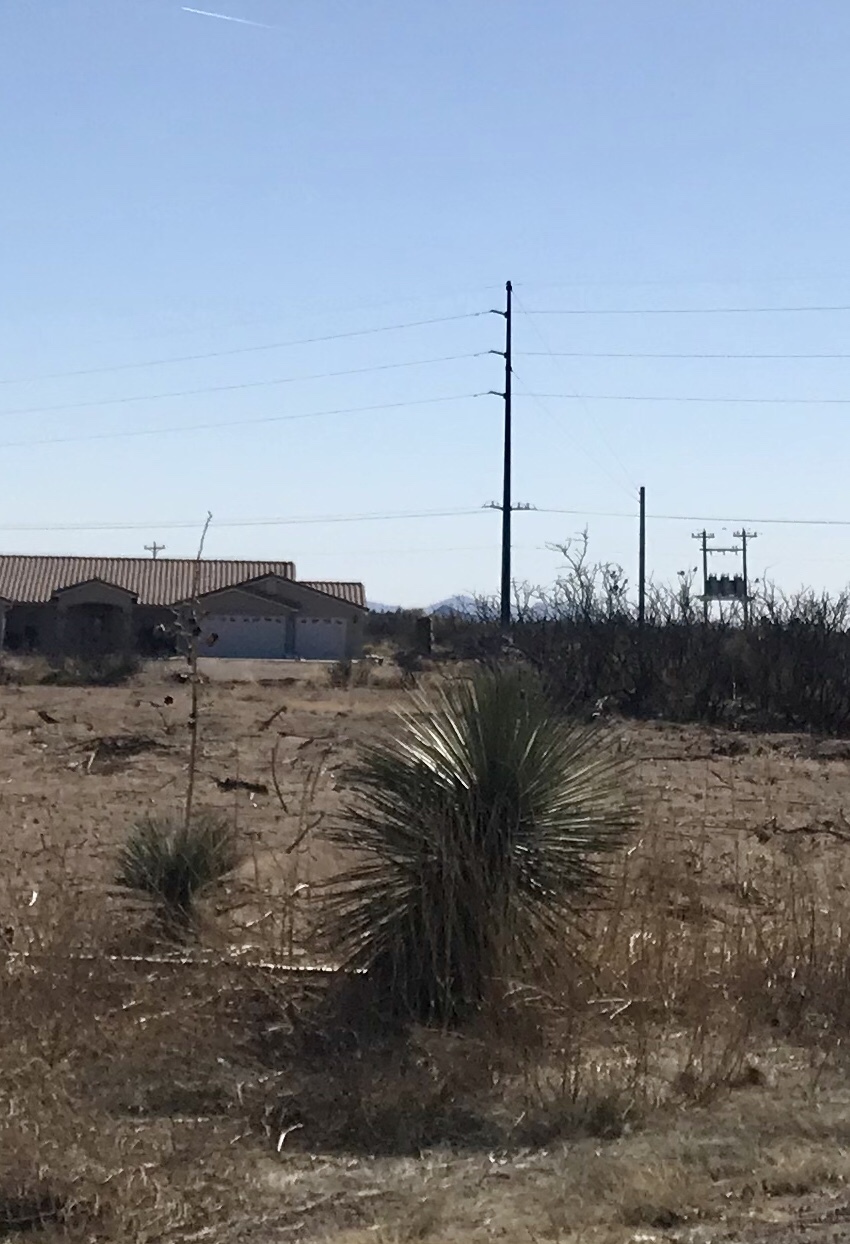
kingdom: Plantae
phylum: Tracheophyta
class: Liliopsida
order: Asparagales
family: Asparagaceae
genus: Yucca
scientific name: Yucca elata
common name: Palmella
